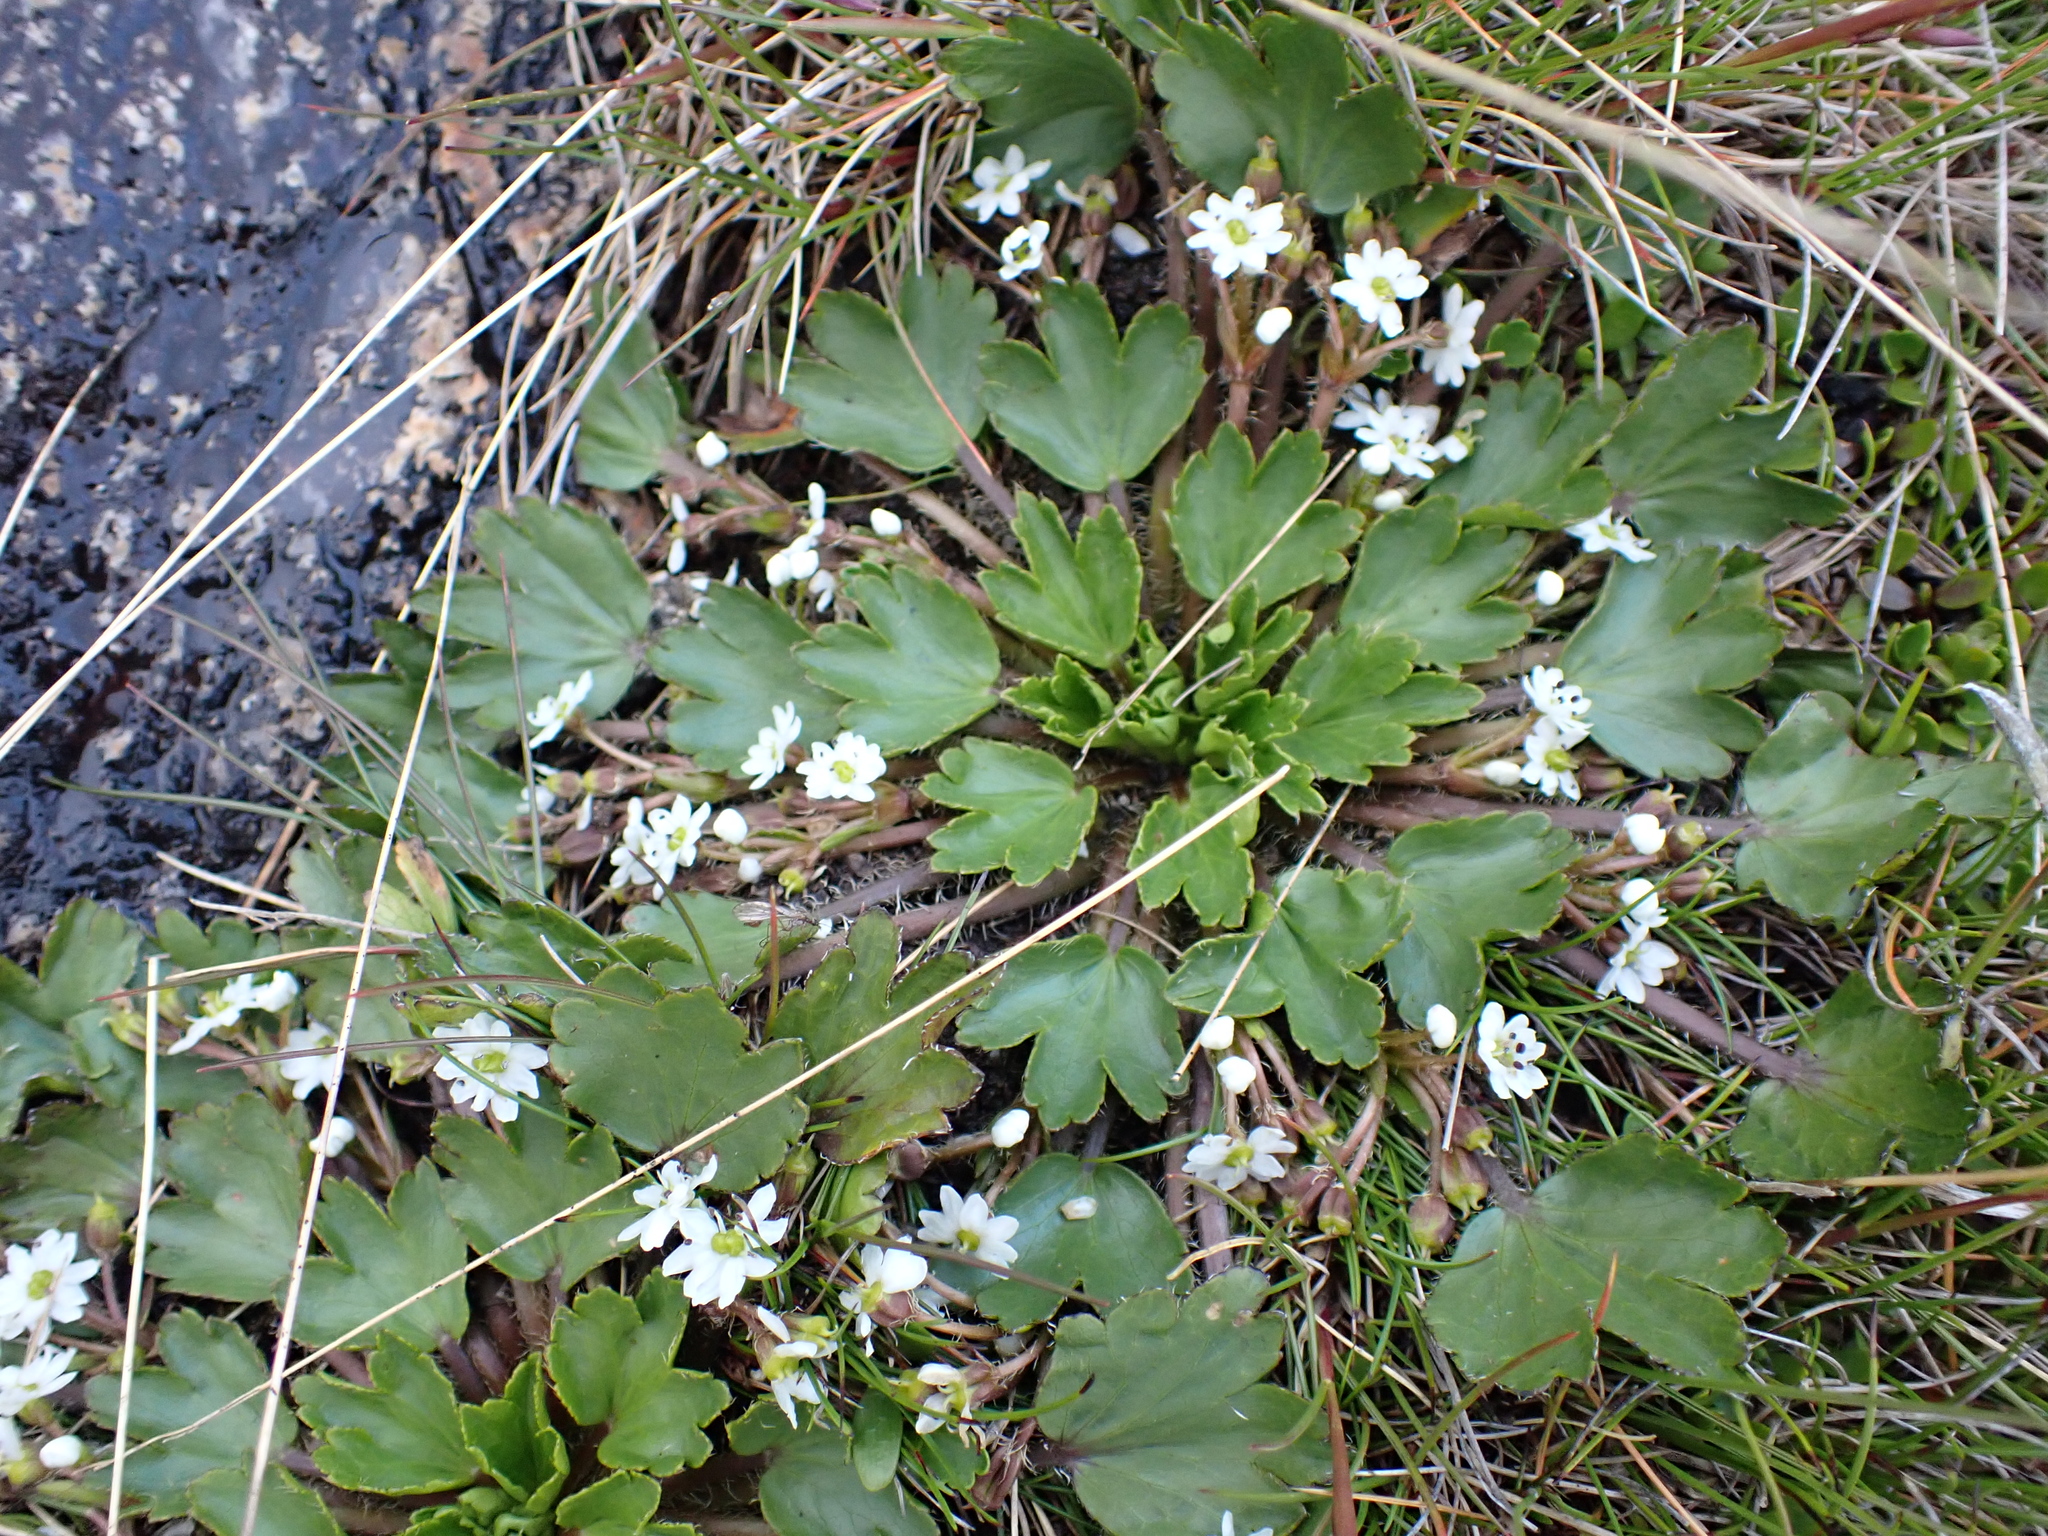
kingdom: Plantae
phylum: Tracheophyta
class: Magnoliopsida
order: Apiales
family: Apiaceae
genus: Dichosciadium
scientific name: Dichosciadium ranunculaceum
